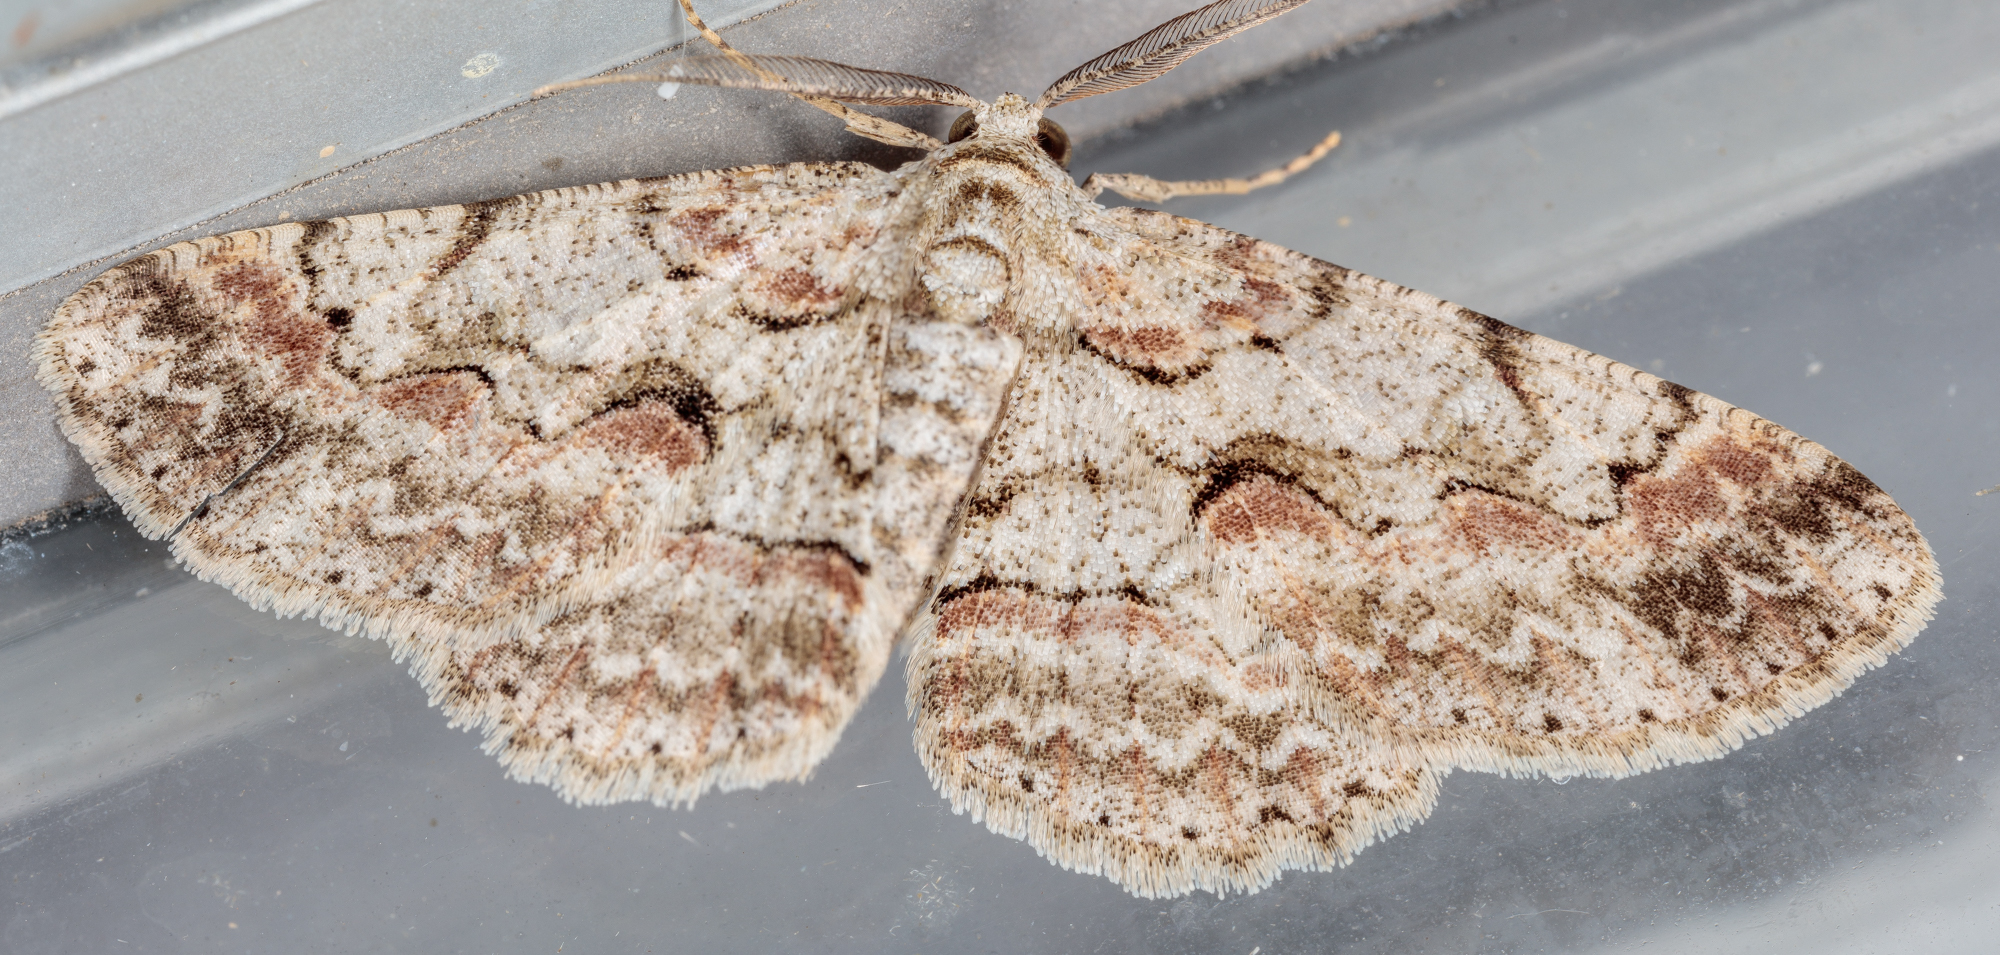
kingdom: Animalia
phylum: Arthropoda
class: Insecta
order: Lepidoptera
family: Geometridae
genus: Iridopsis
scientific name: Iridopsis defectaria
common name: Brown-shaded gray
